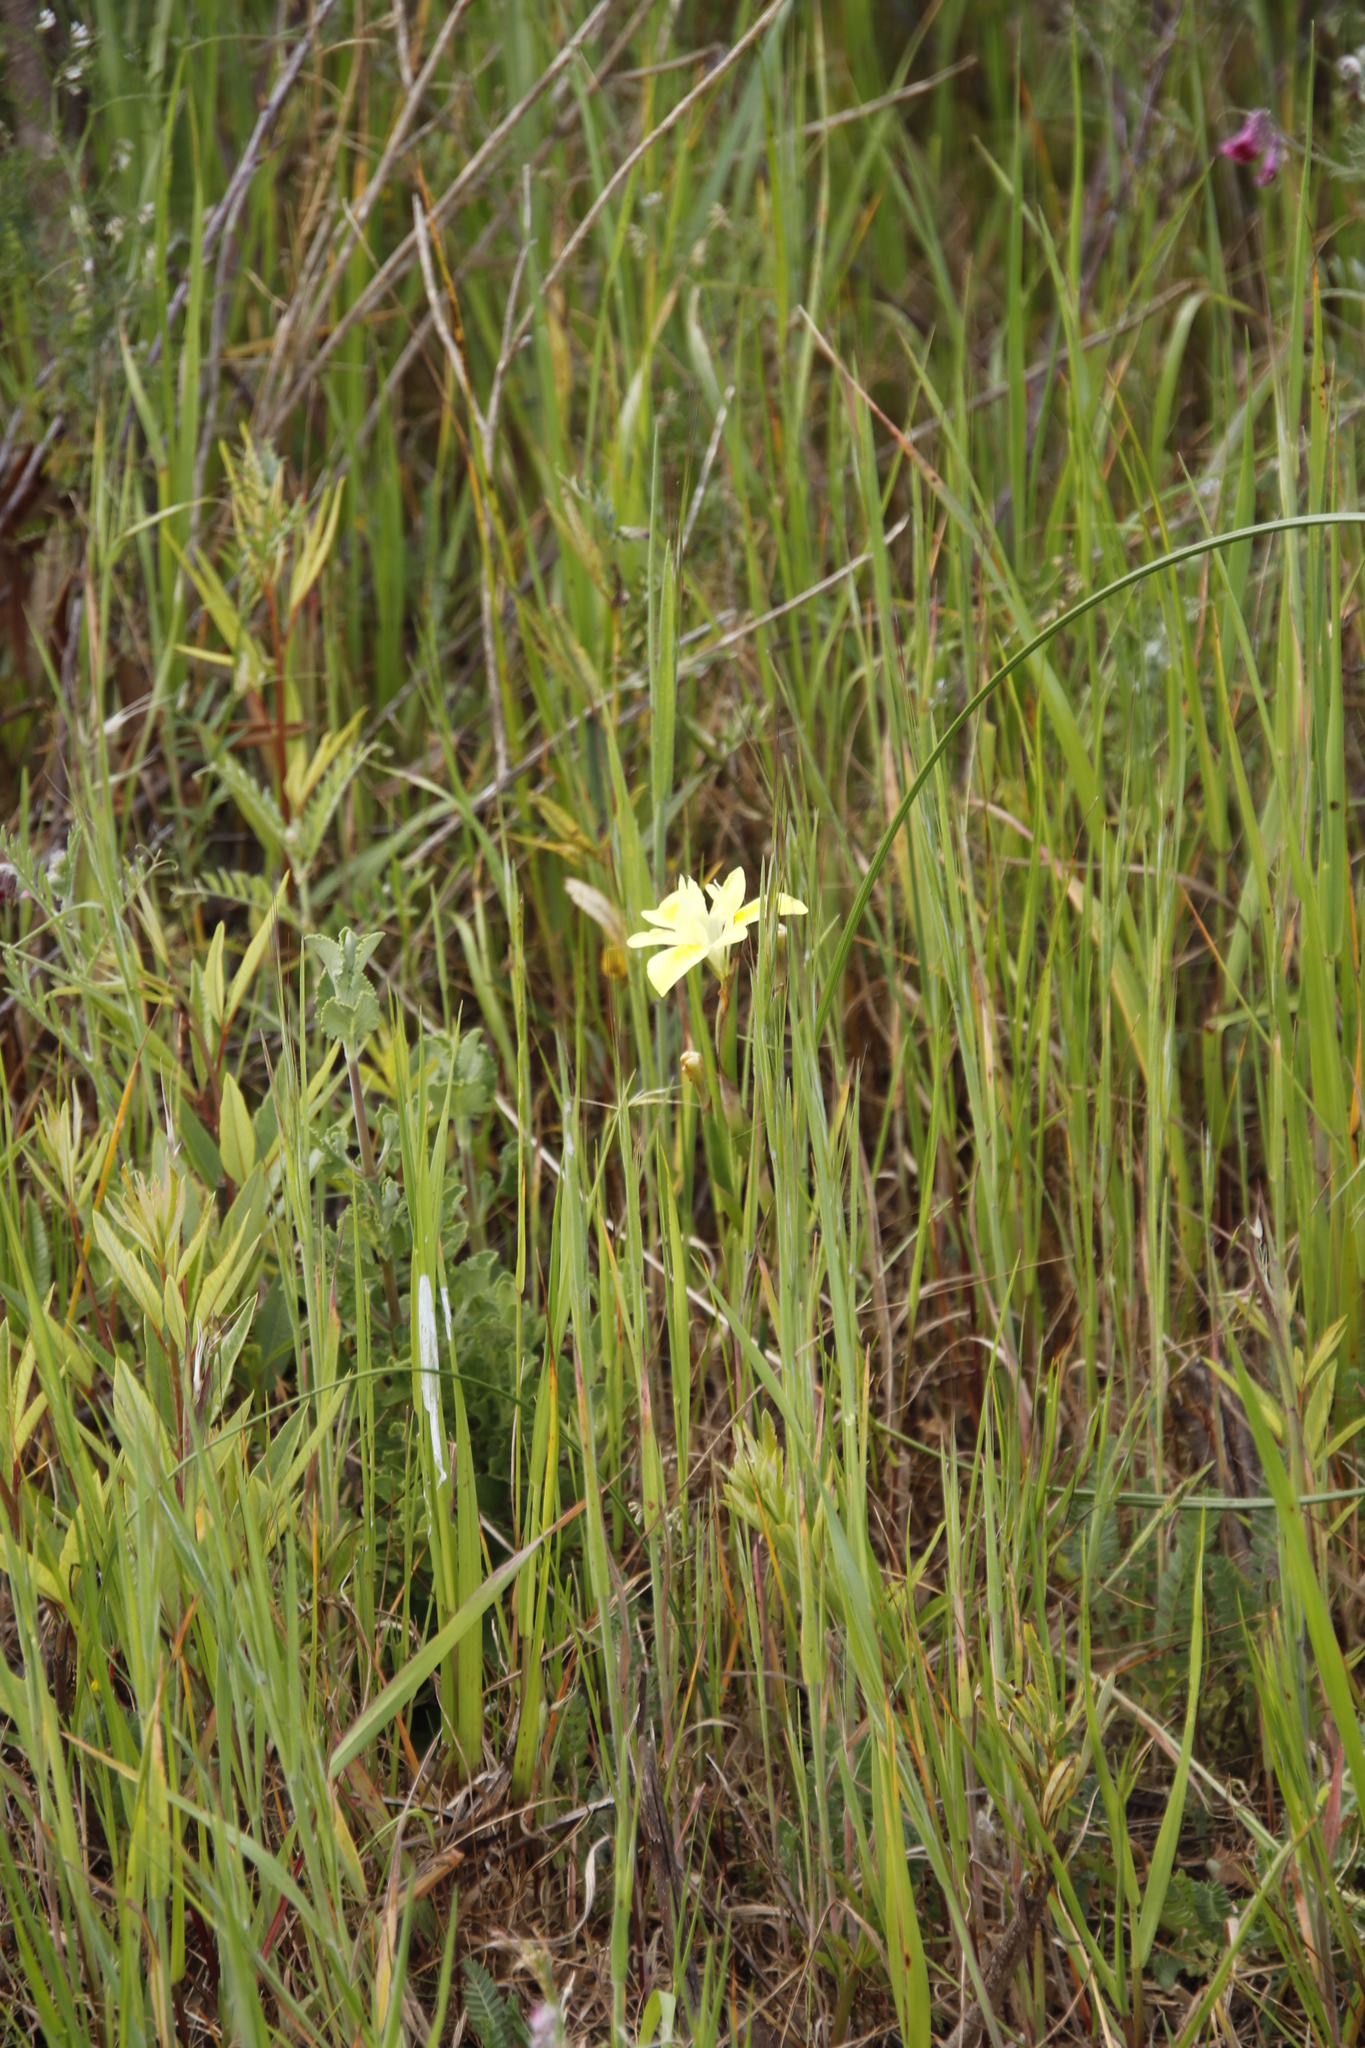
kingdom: Plantae
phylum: Tracheophyta
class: Liliopsida
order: Asparagales
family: Iridaceae
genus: Moraea
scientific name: Moraea fugax
